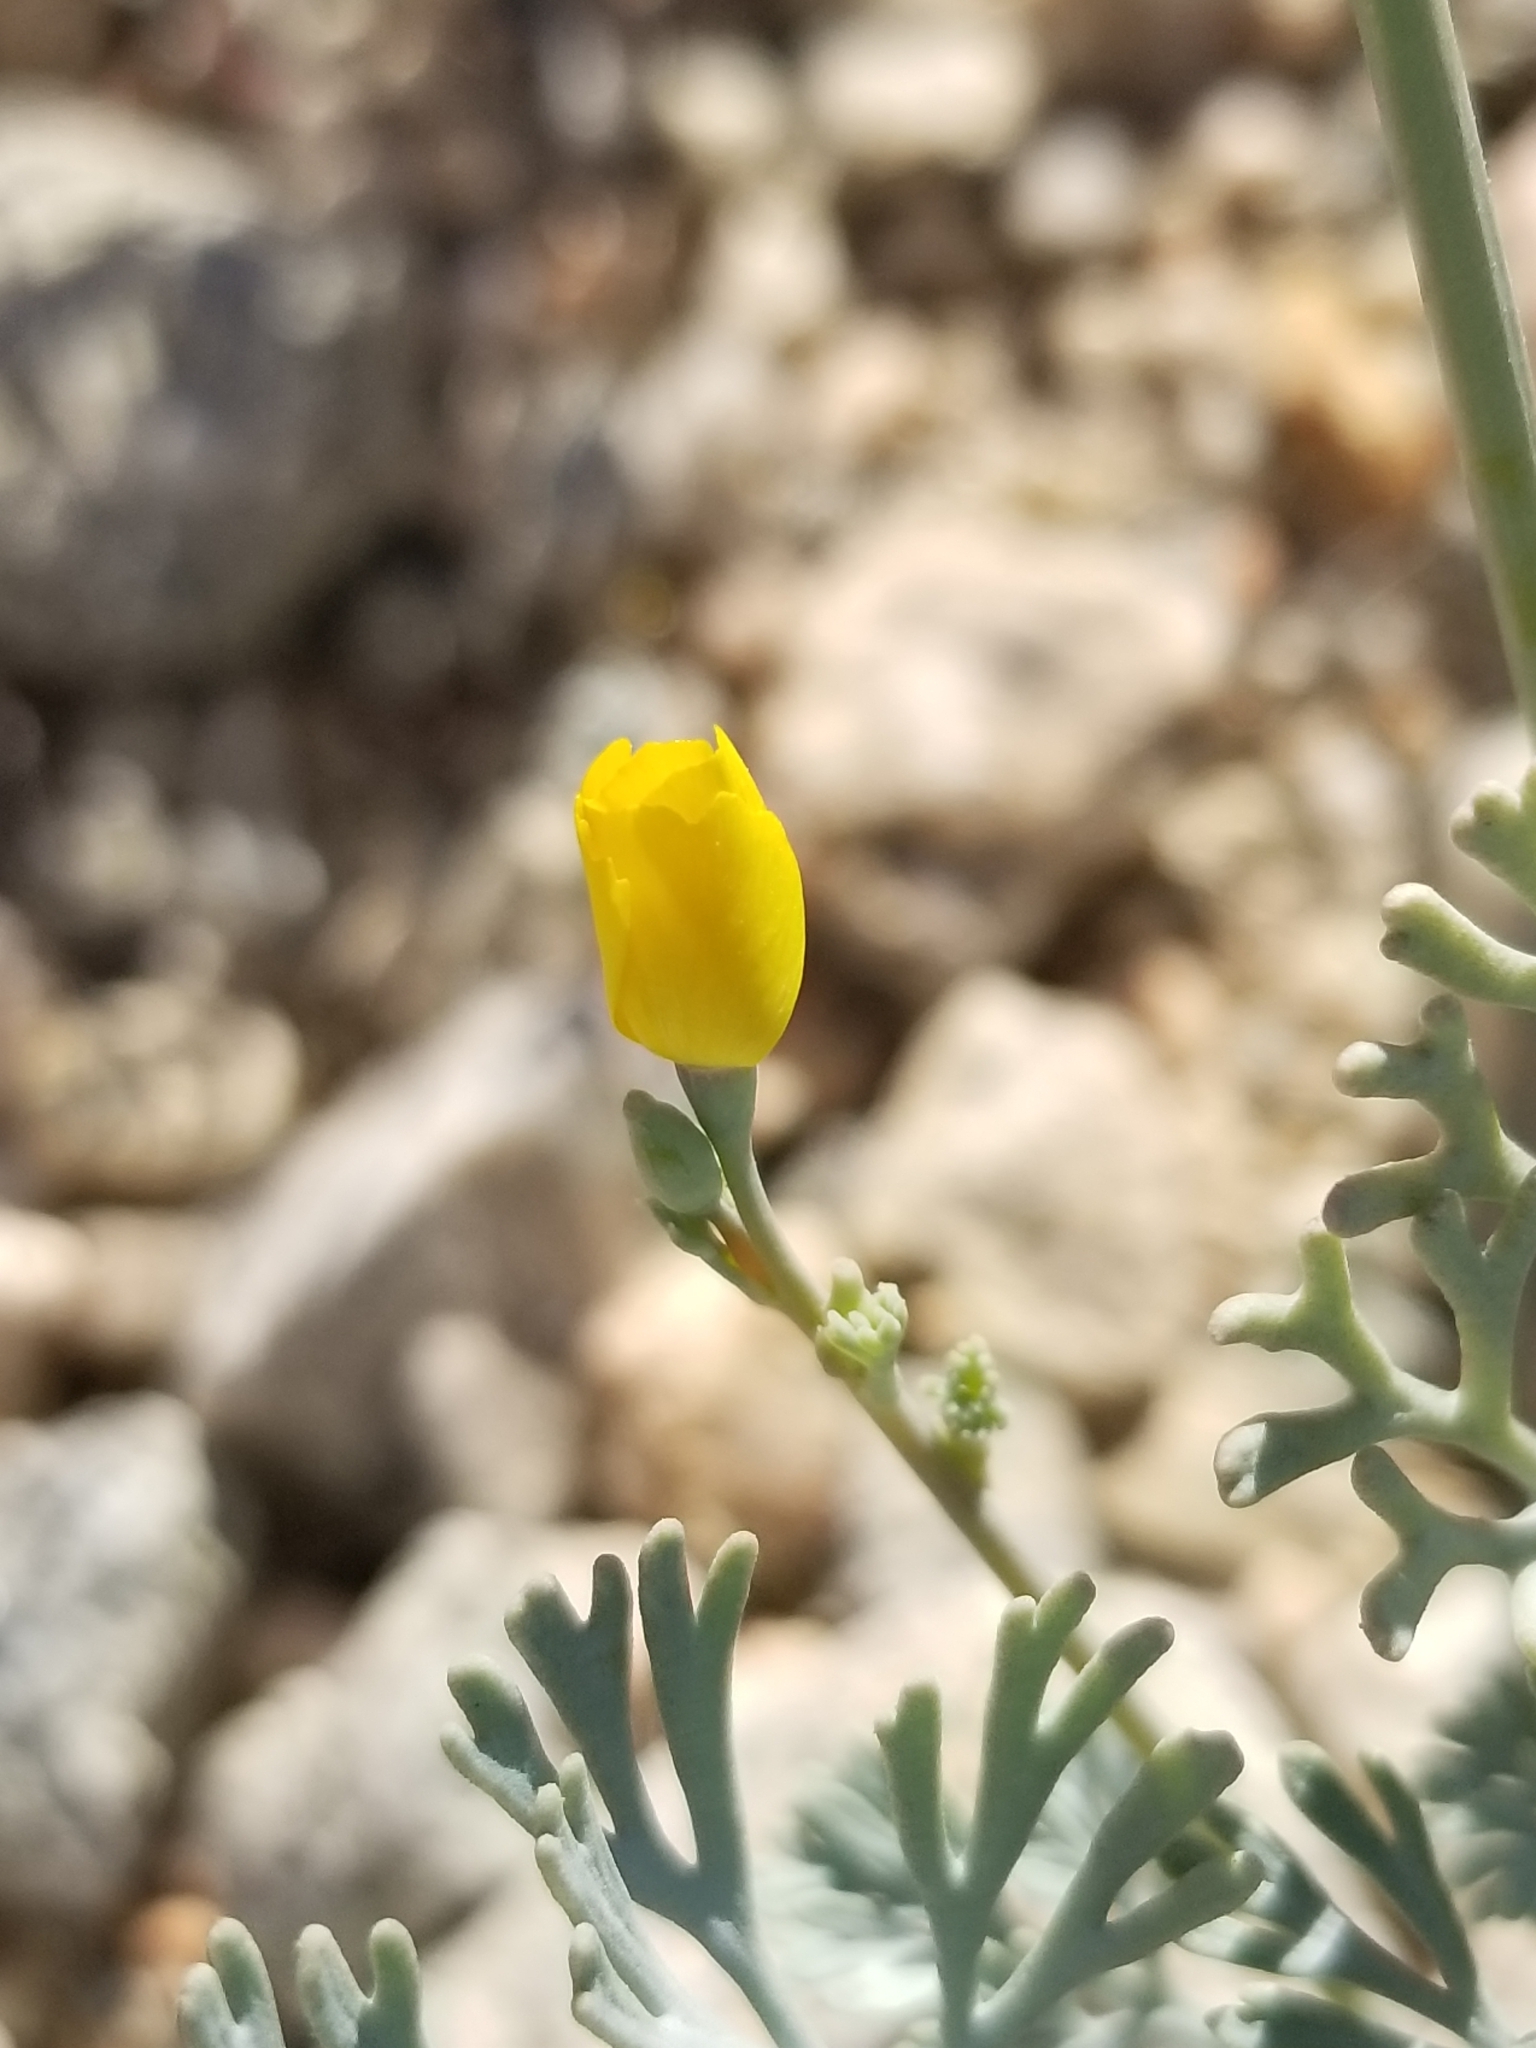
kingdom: Plantae
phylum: Tracheophyta
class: Magnoliopsida
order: Ranunculales
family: Papaveraceae
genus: Eschscholzia
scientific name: Eschscholzia minutiflora
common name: Small-flower california-poppy
